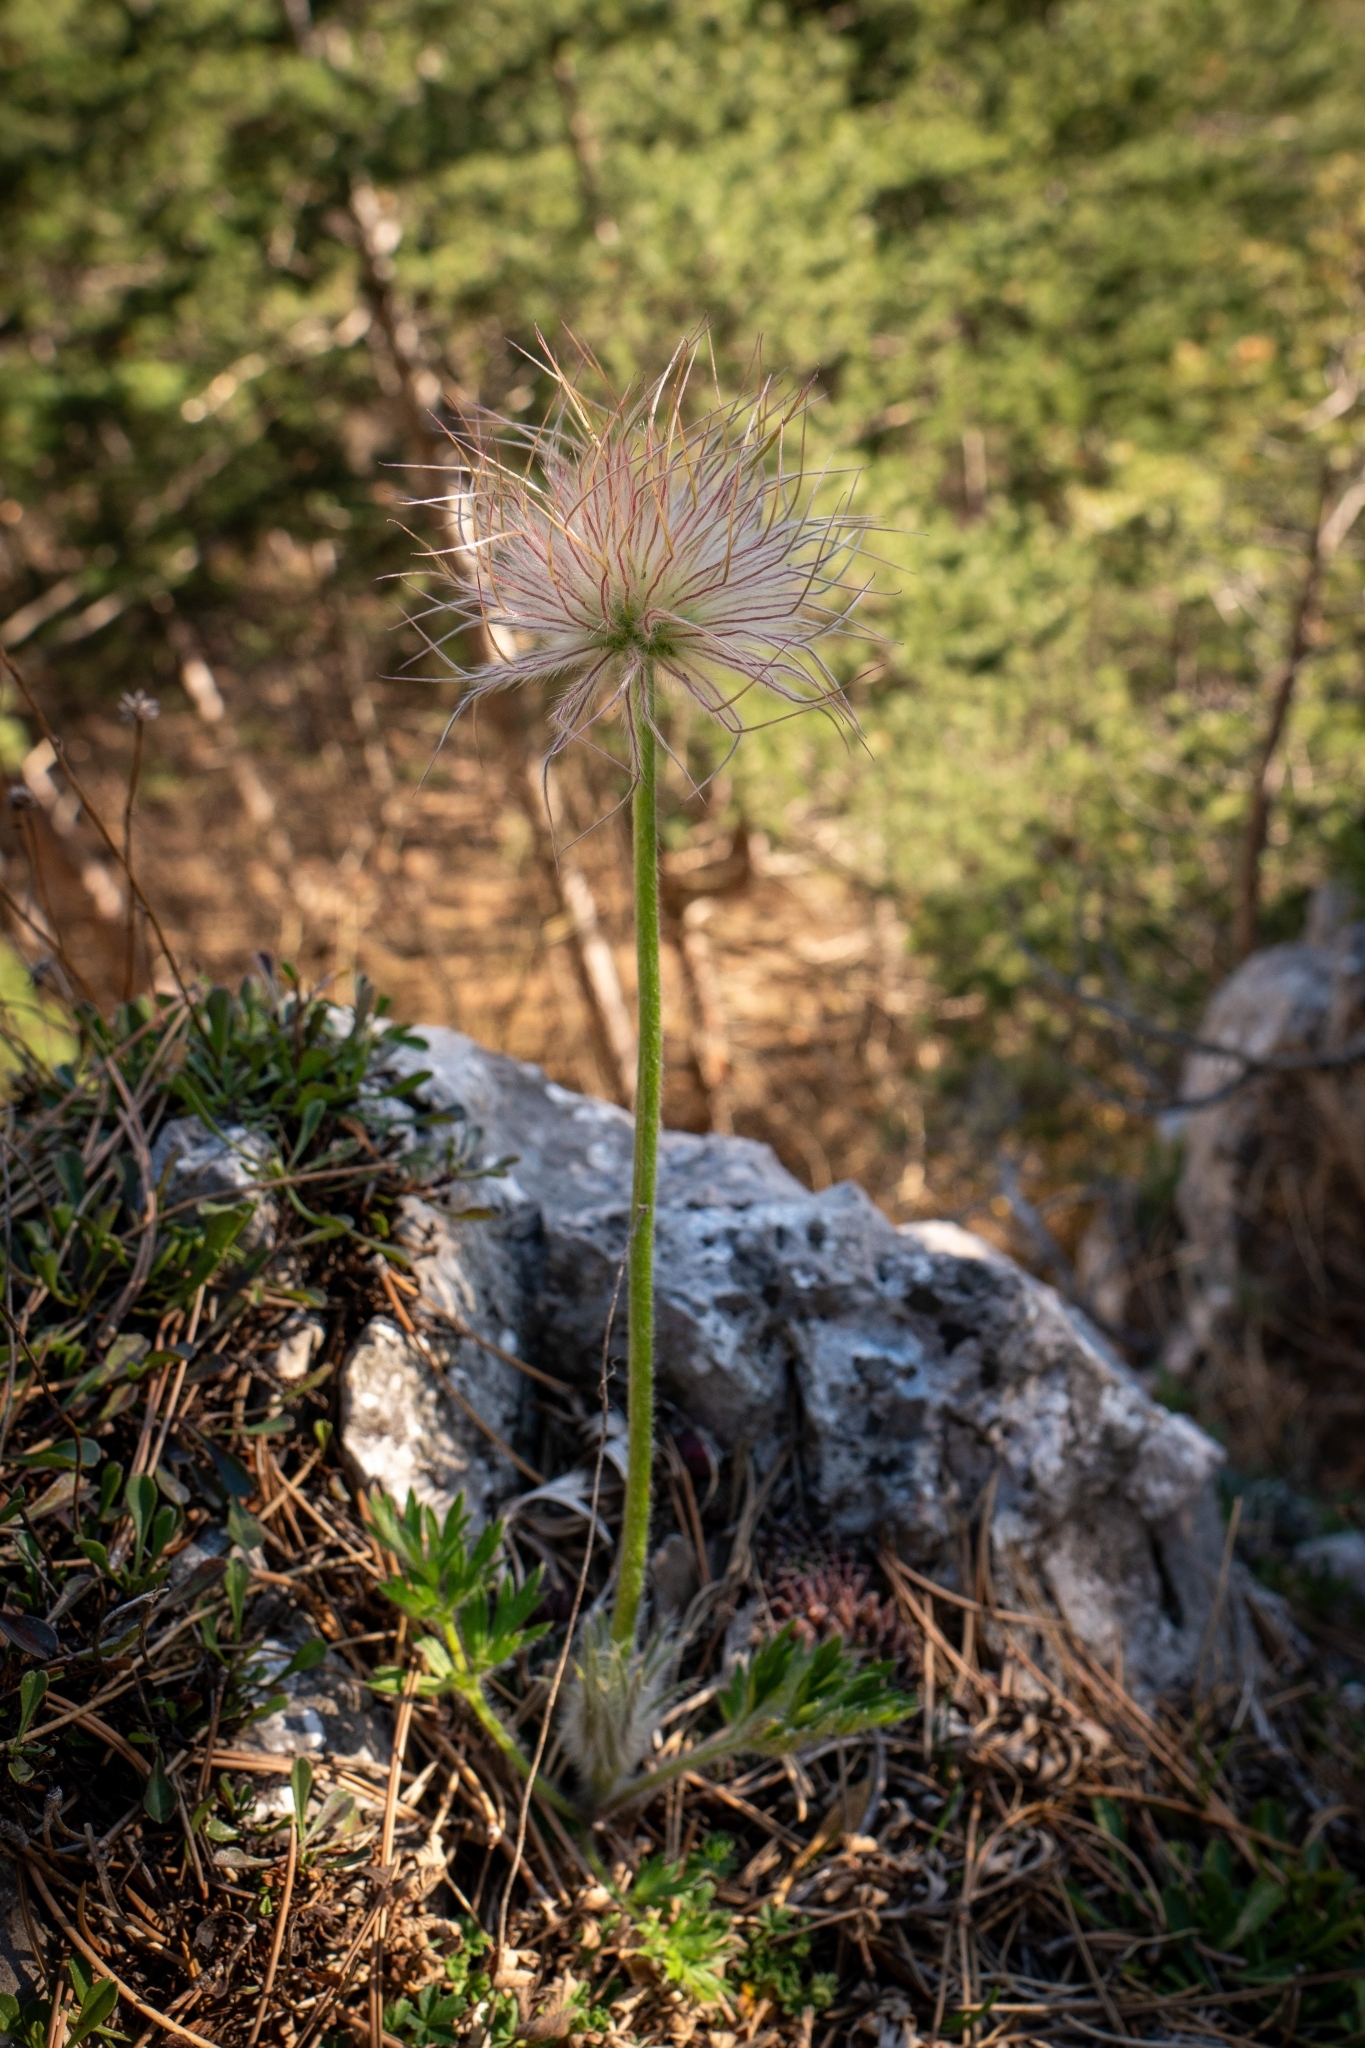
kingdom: Plantae
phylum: Tracheophyta
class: Magnoliopsida
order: Ranunculales
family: Ranunculaceae
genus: Pulsatilla
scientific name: Pulsatilla grandis
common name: Greater pasque flower
